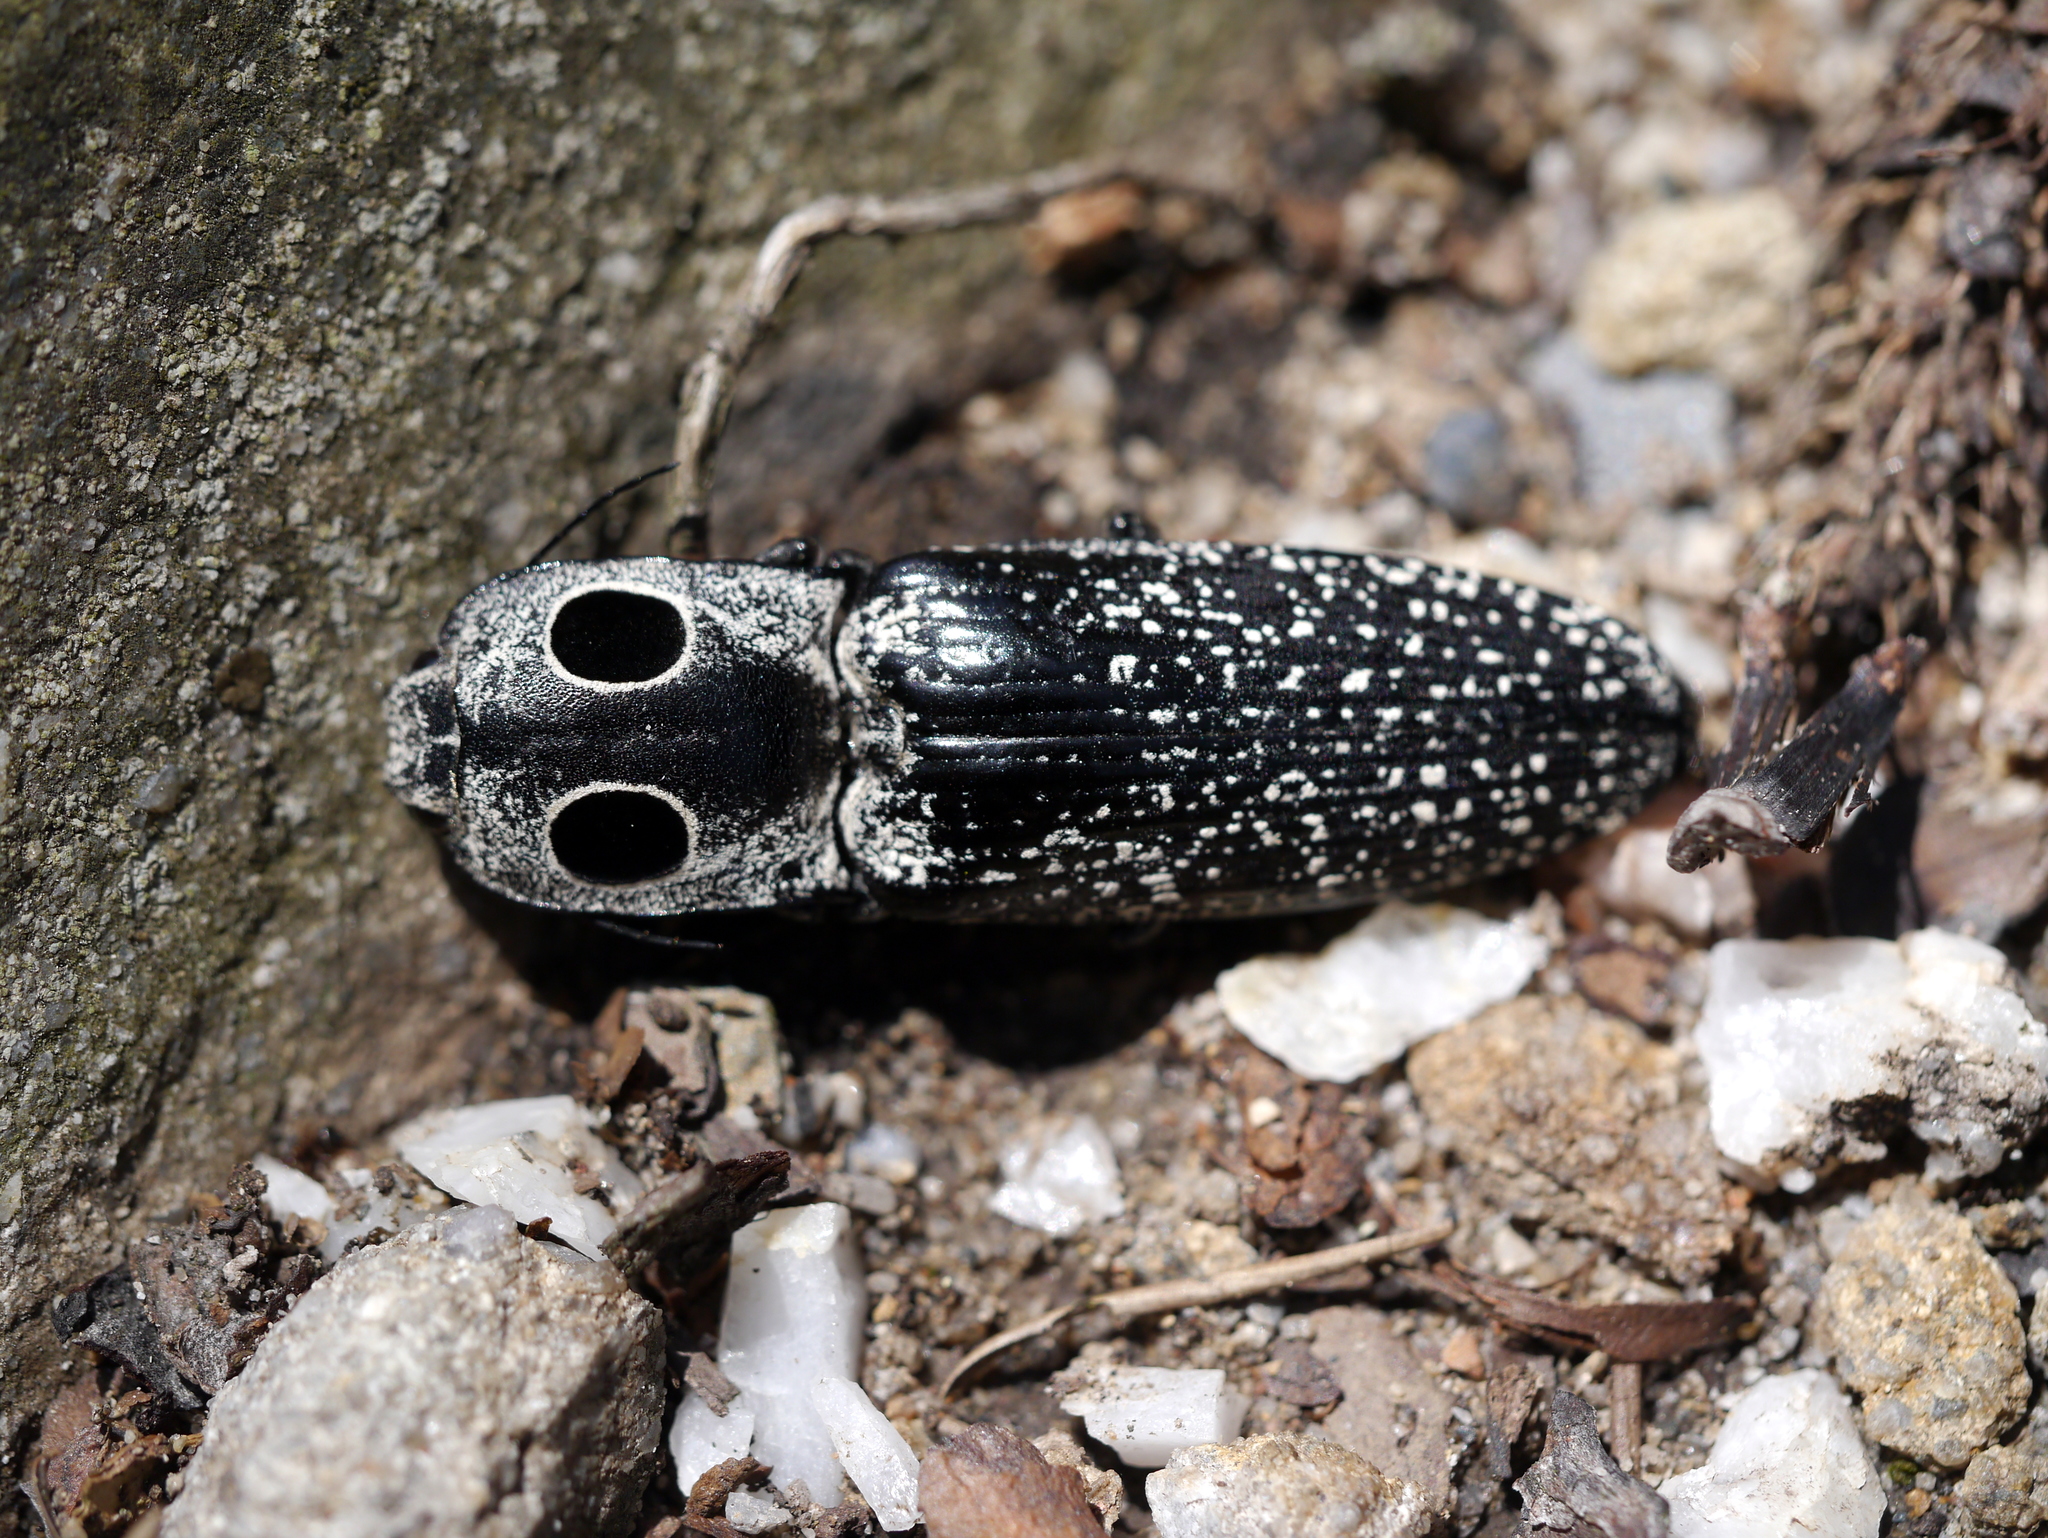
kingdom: Animalia
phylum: Arthropoda
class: Insecta
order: Coleoptera
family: Elateridae
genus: Alaus
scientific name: Alaus oculatus
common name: Eastern eyed click beetle
